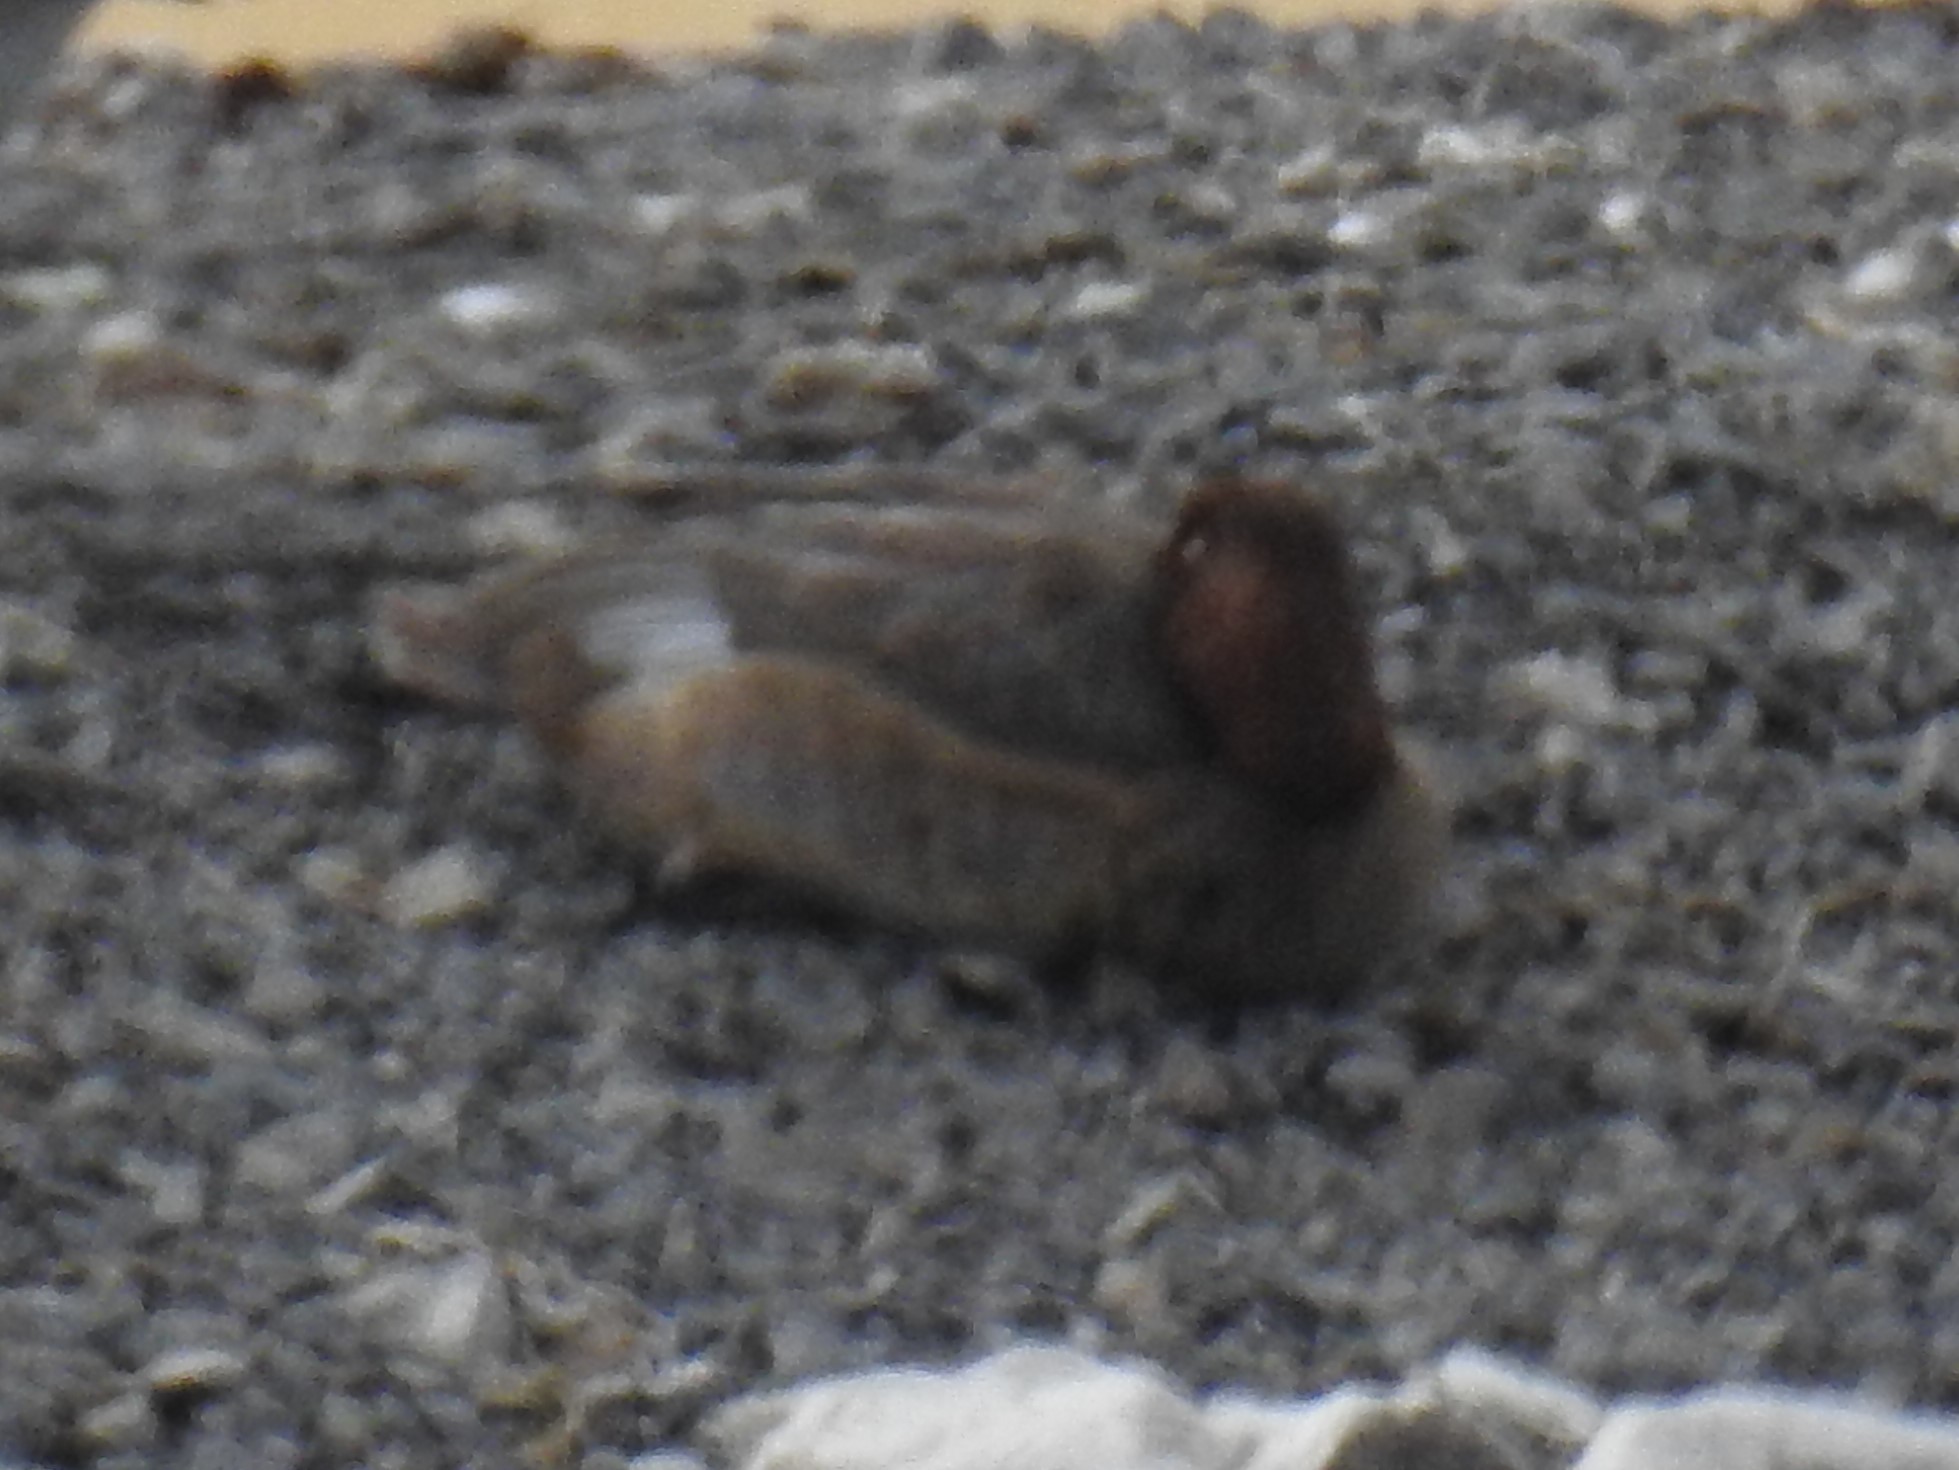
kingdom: Animalia
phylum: Chordata
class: Aves
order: Anseriformes
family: Anatidae
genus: Aythya
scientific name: Aythya americana
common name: Redhead
